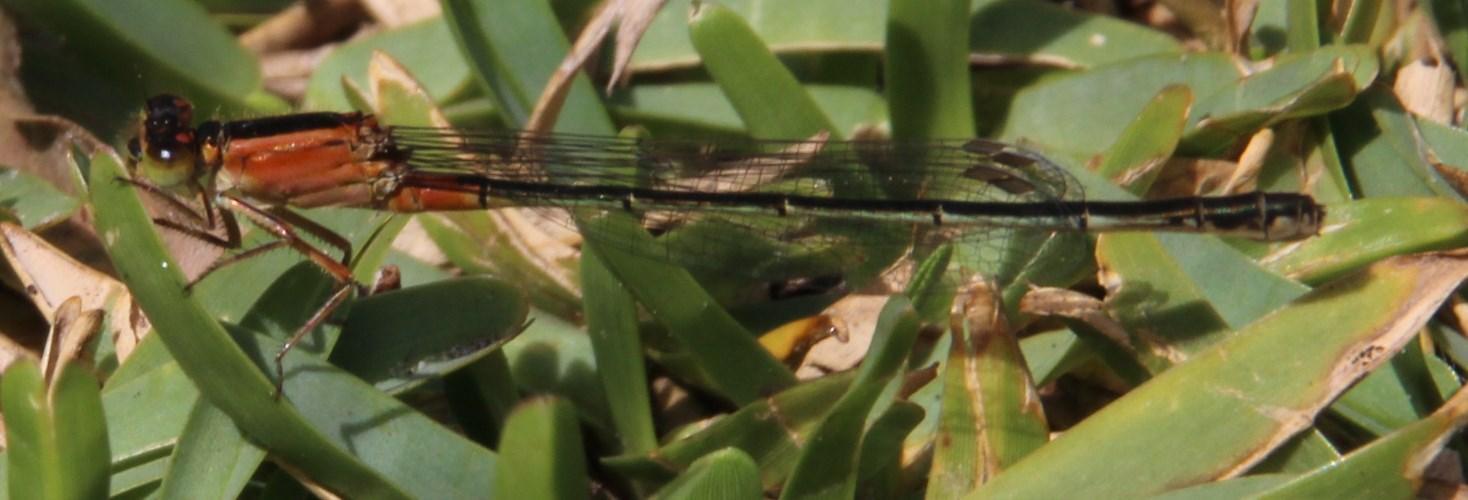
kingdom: Animalia
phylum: Arthropoda
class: Insecta
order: Odonata
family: Coenagrionidae
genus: Ischnura
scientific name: Ischnura senegalensis
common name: Tropical bluetail
